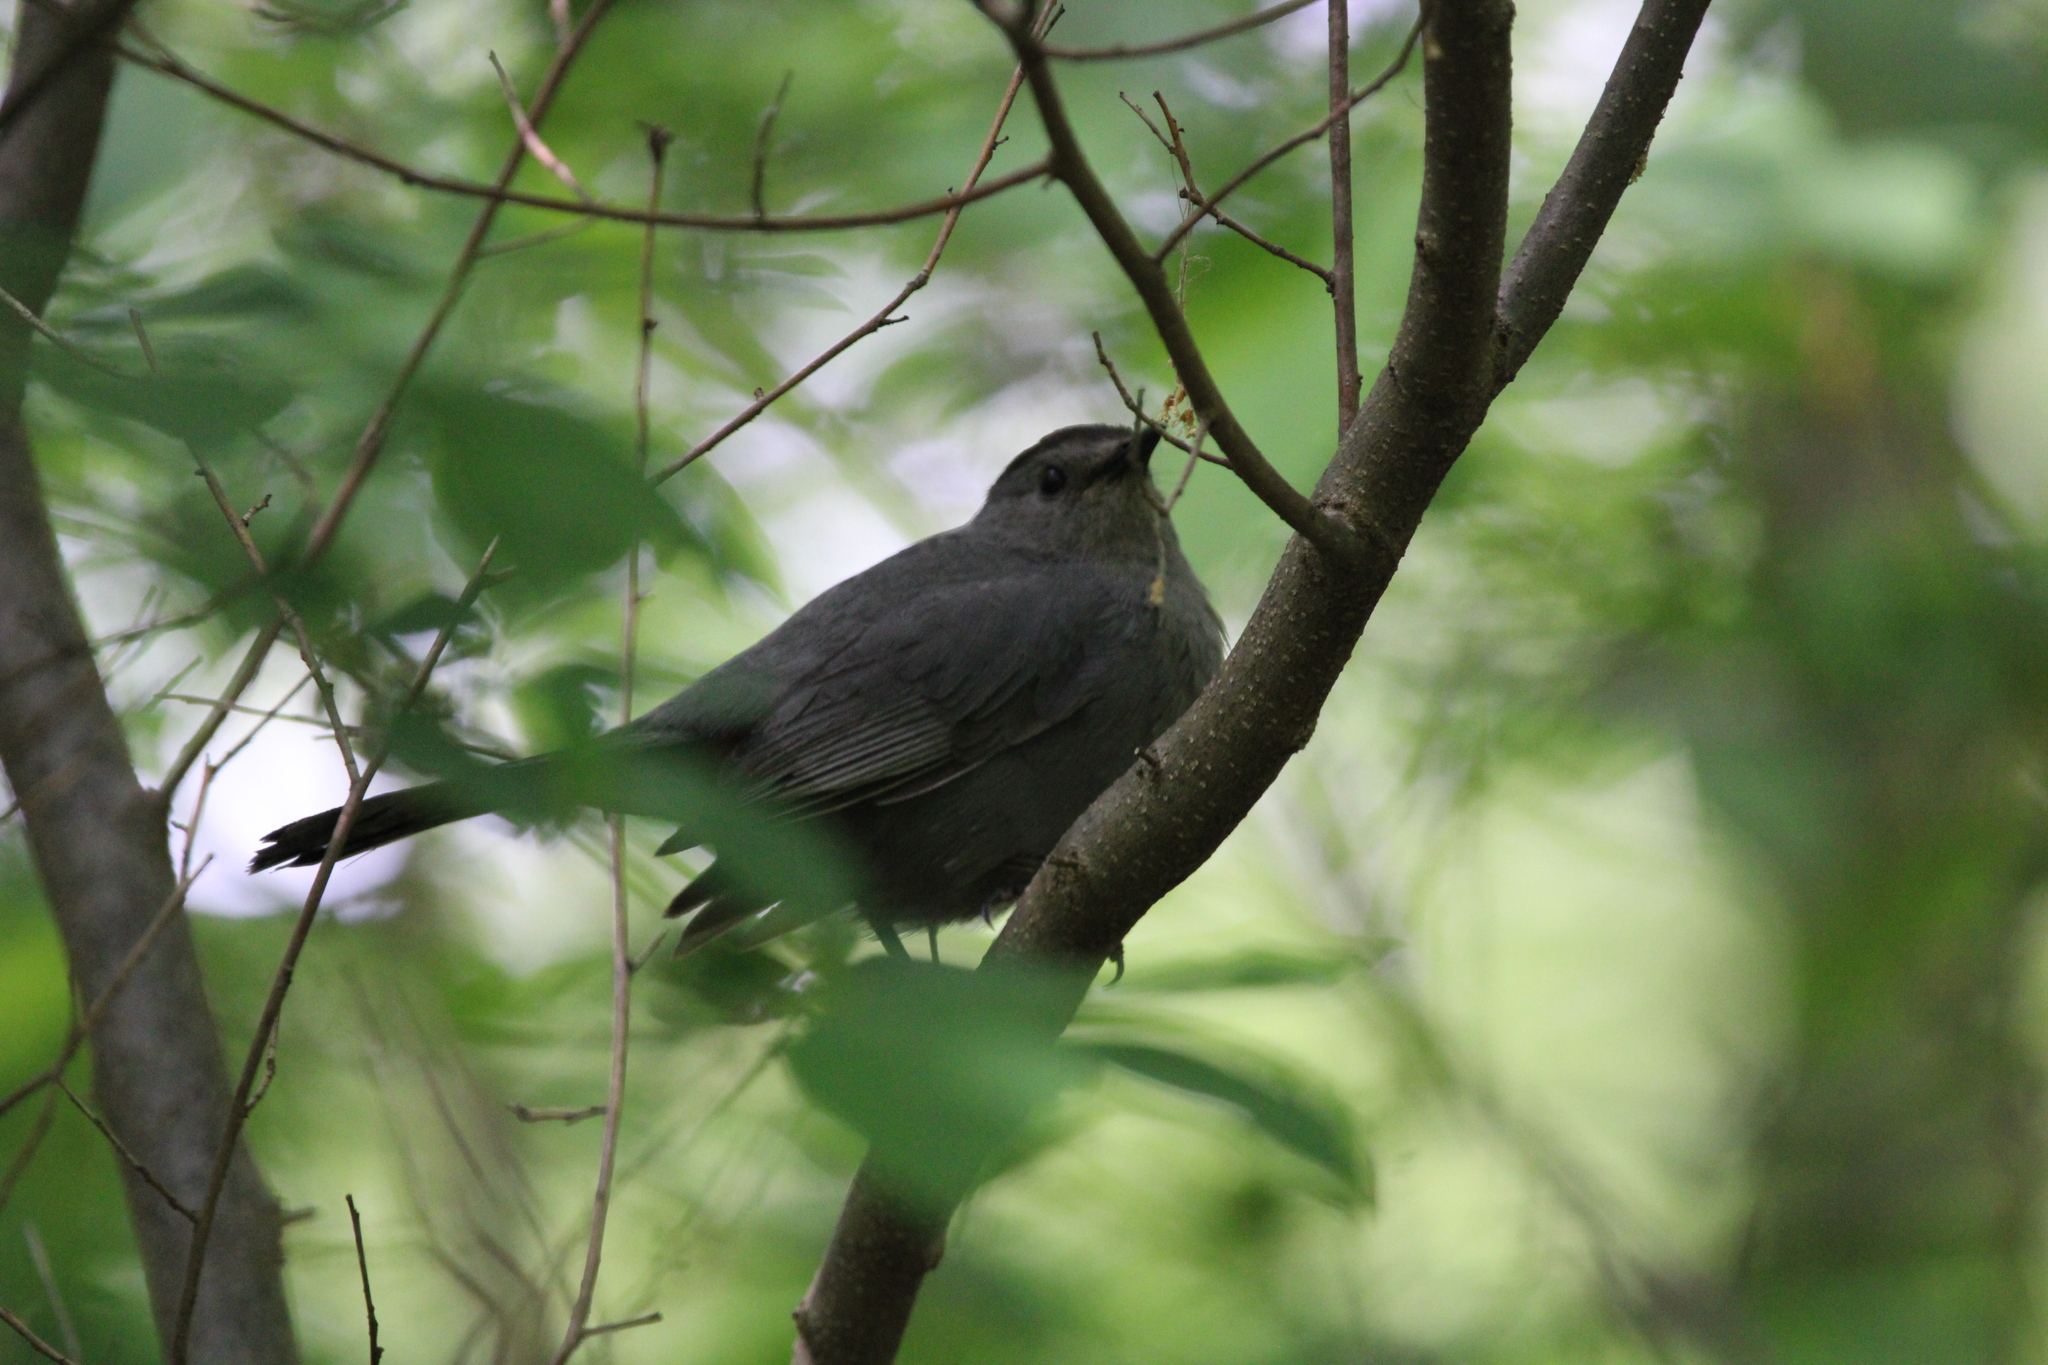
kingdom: Animalia
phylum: Chordata
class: Aves
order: Passeriformes
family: Mimidae
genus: Dumetella
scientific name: Dumetella carolinensis
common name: Gray catbird
